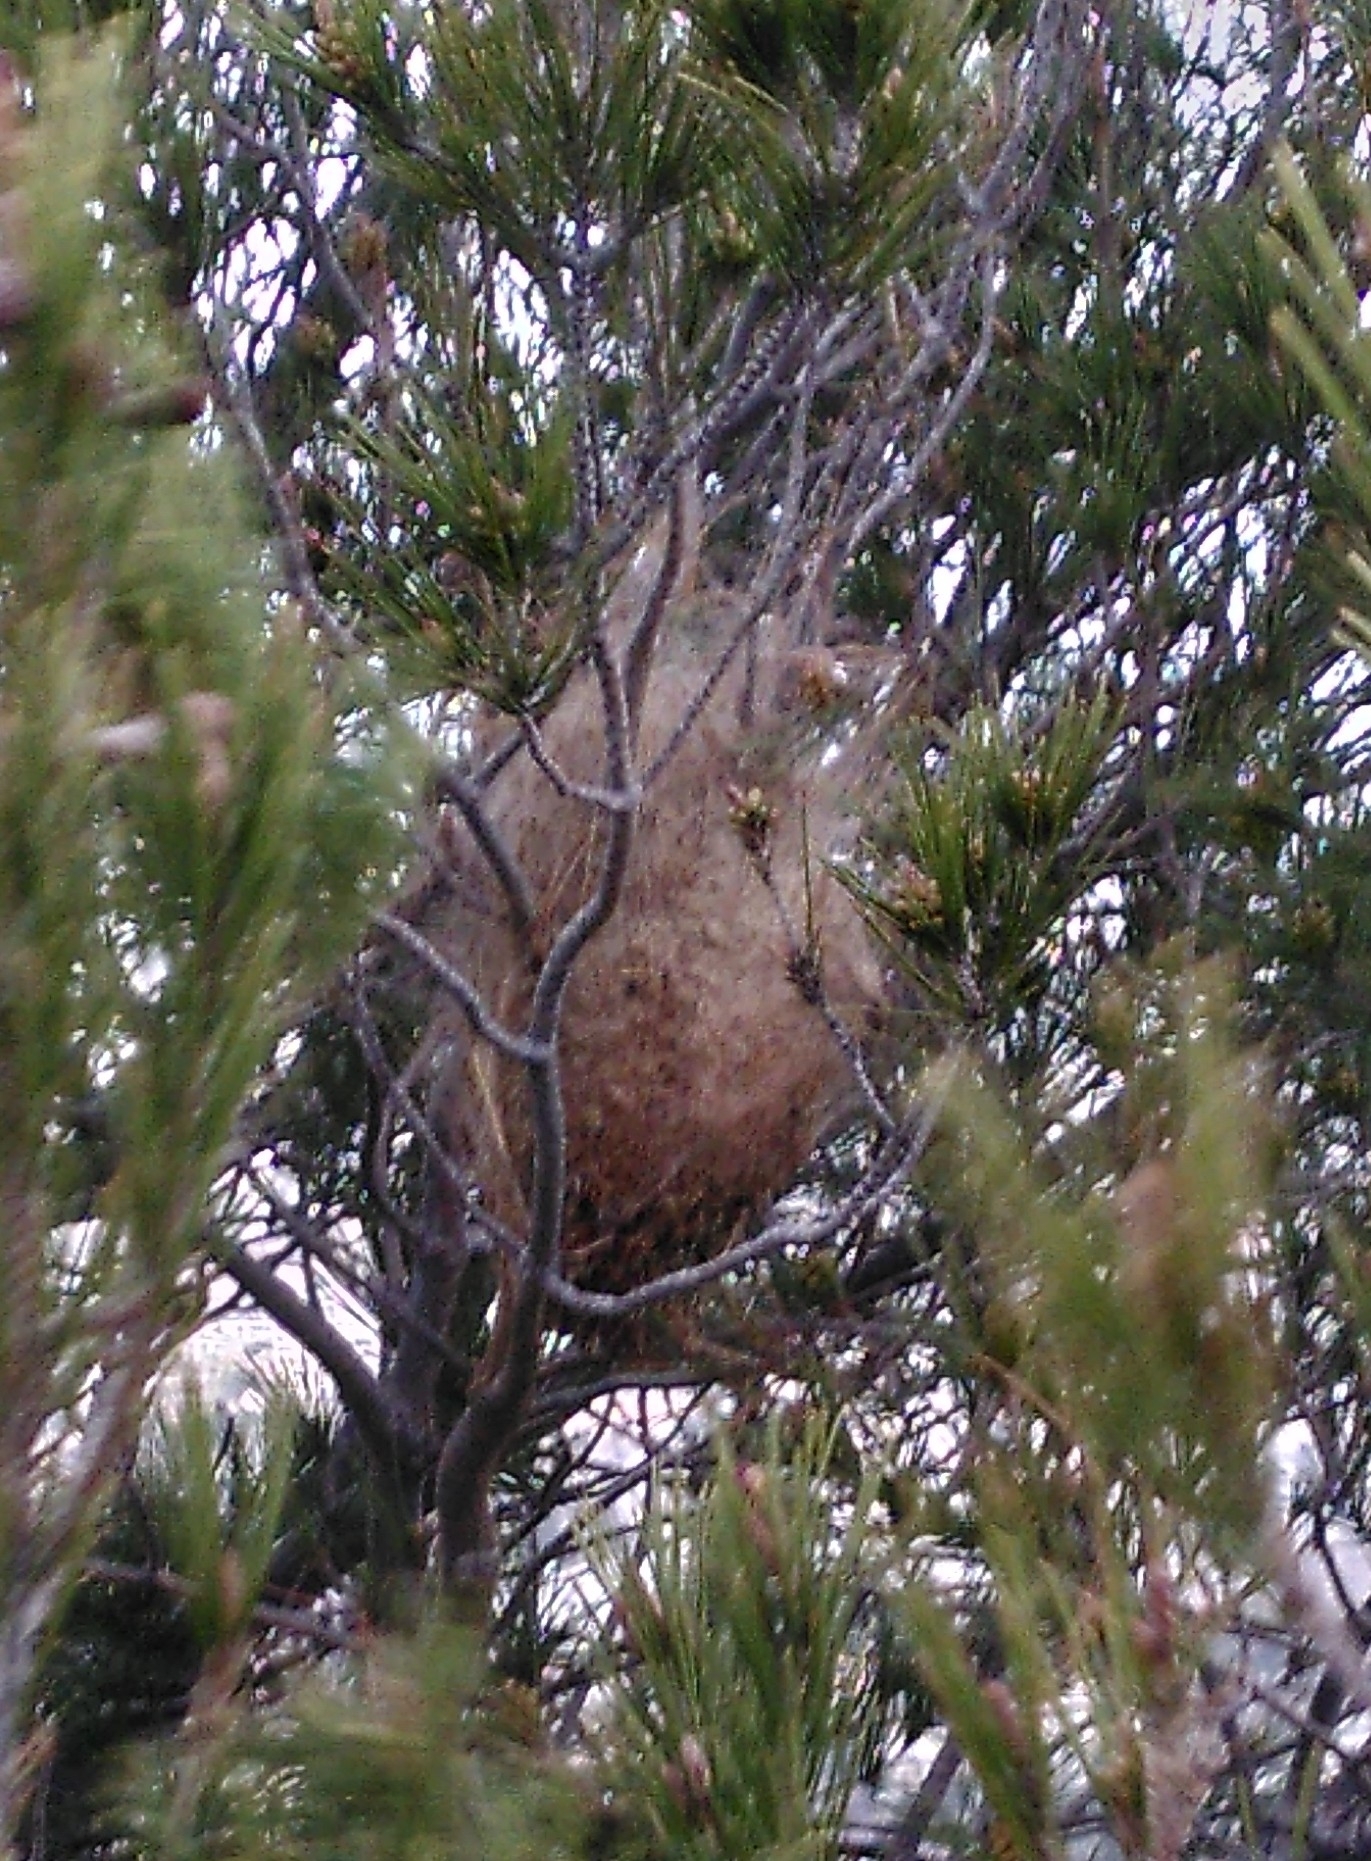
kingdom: Animalia
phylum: Arthropoda
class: Insecta
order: Lepidoptera
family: Notodontidae
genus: Thaumetopoea
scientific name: Thaumetopoea pityocampa
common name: Pine processionary
